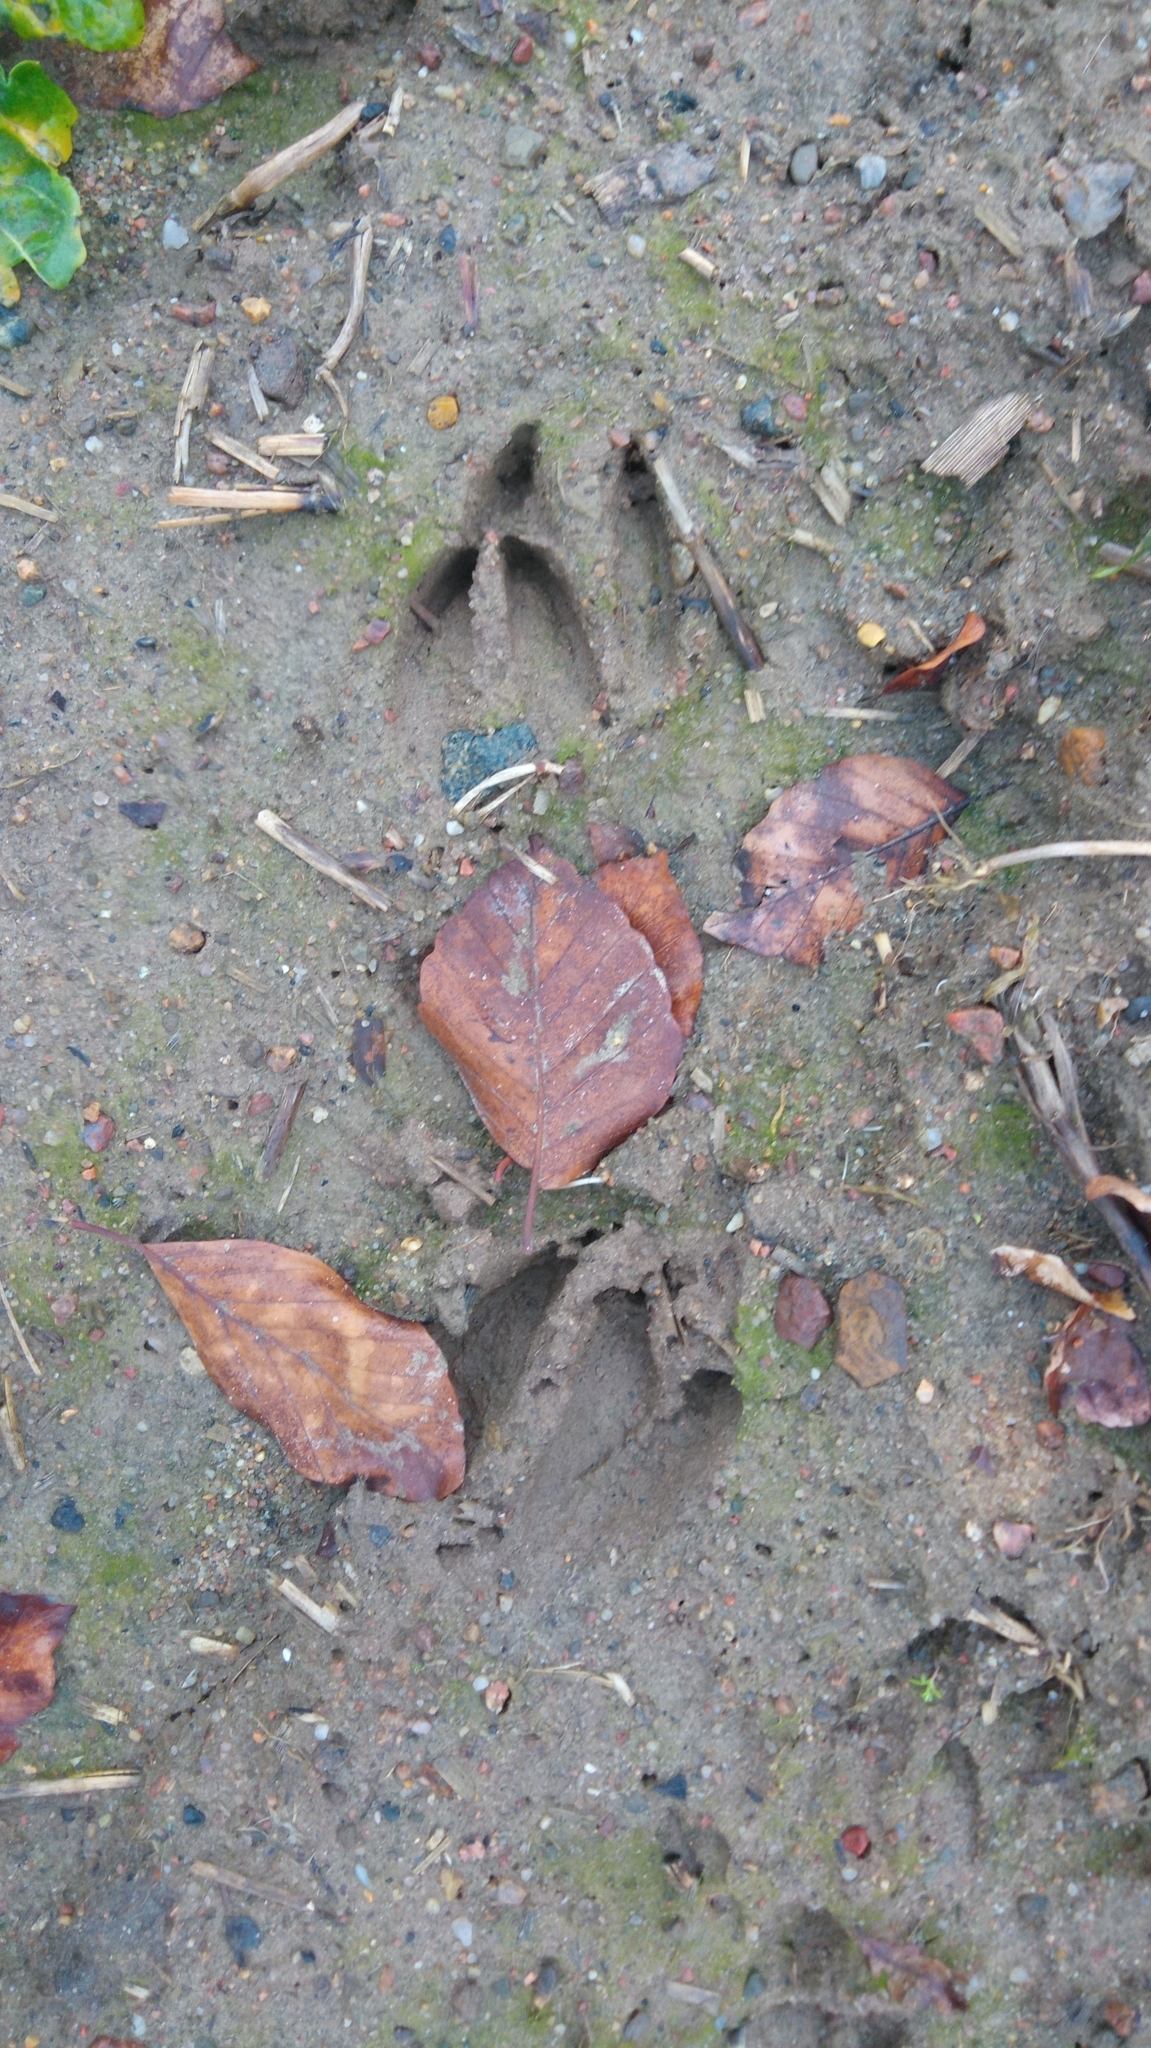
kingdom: Animalia
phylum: Chordata
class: Mammalia
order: Artiodactyla
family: Cervidae
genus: Capreolus
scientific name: Capreolus capreolus
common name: Western roe deer
